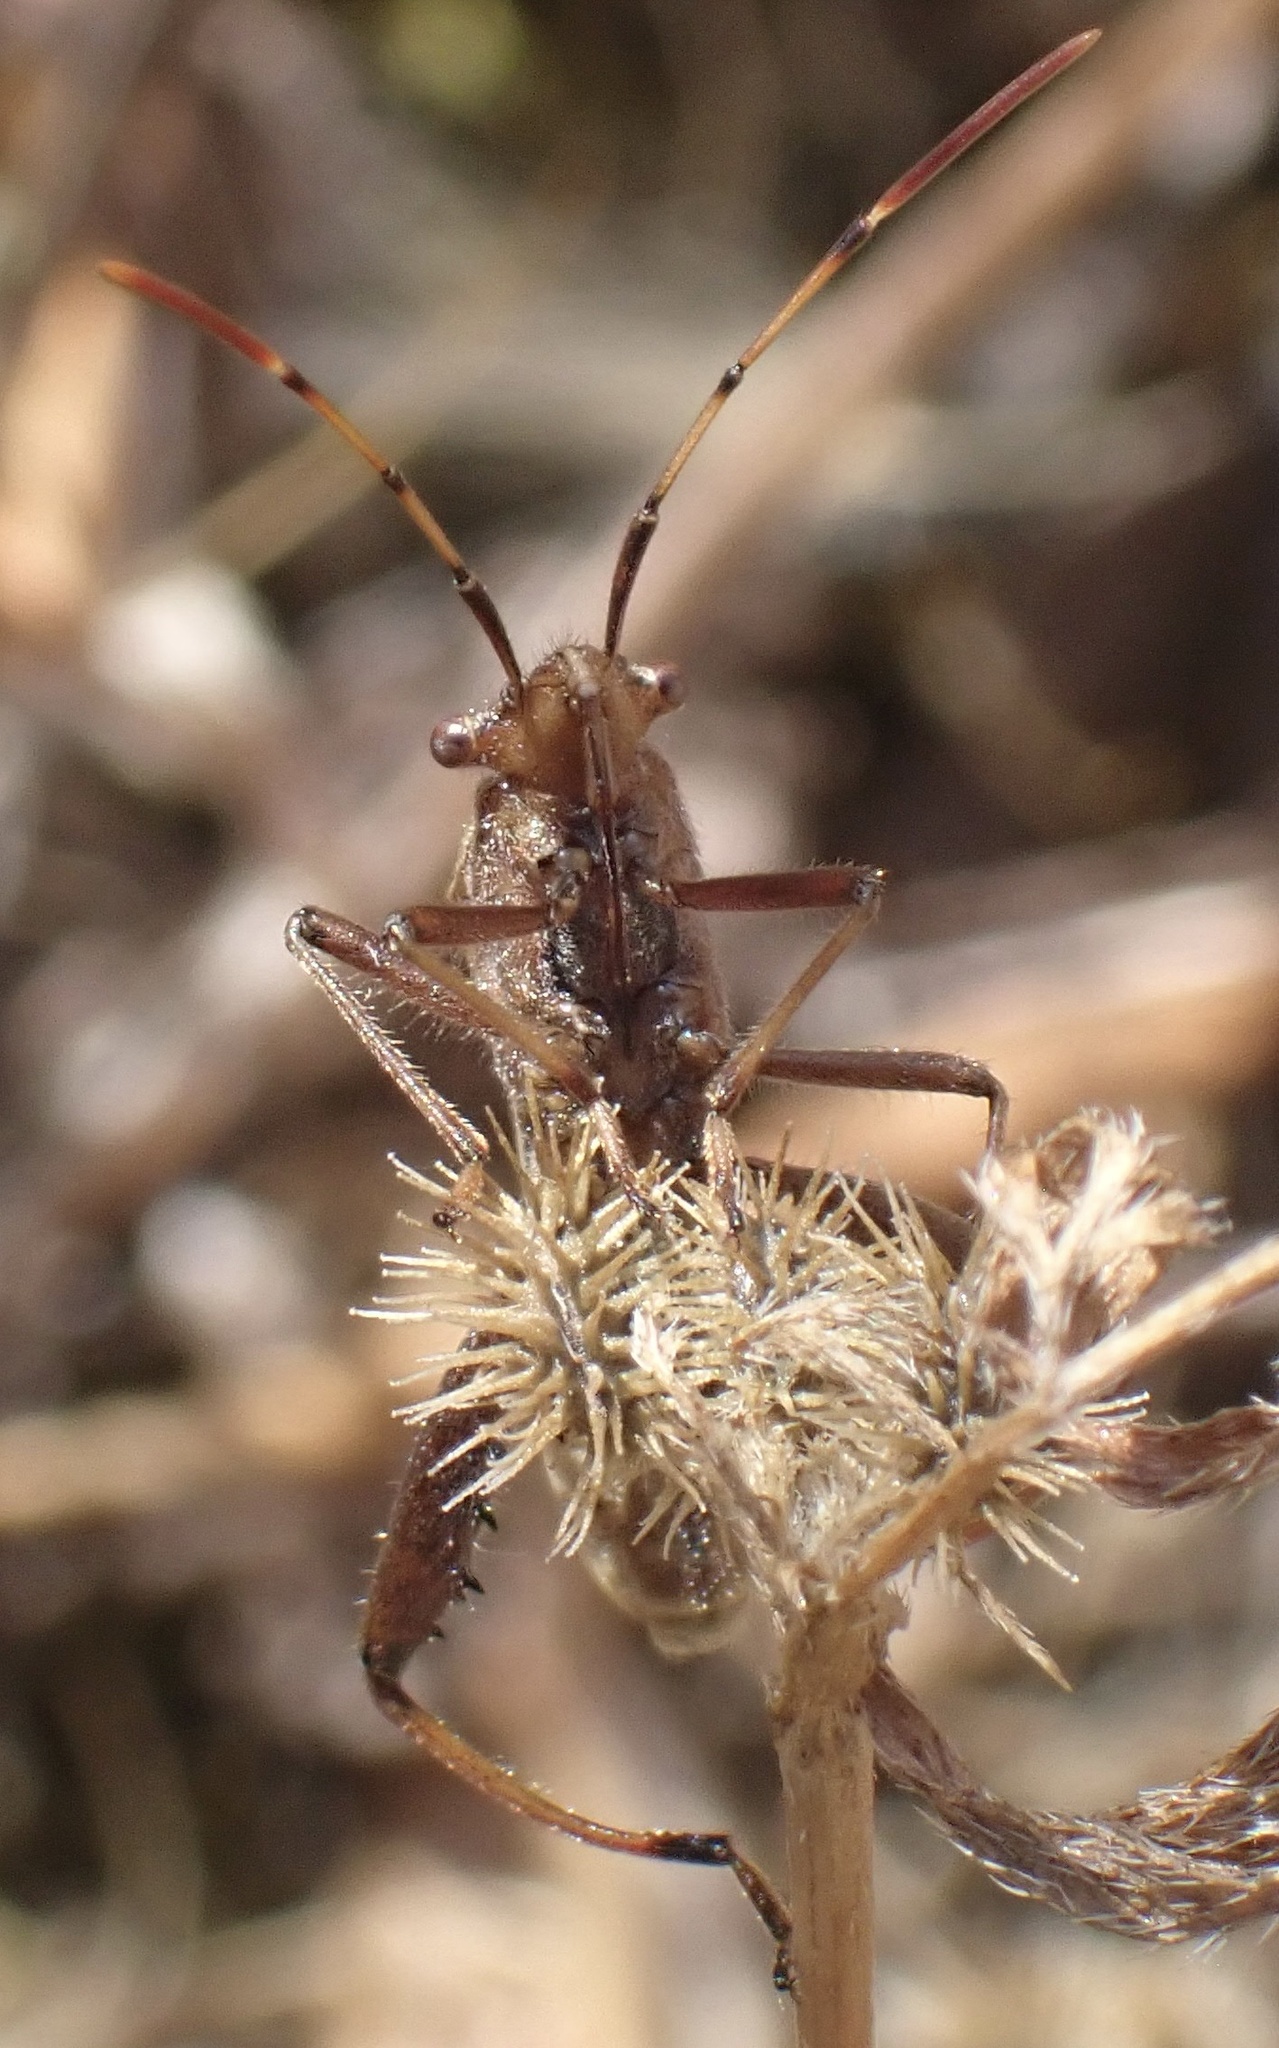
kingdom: Animalia
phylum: Arthropoda
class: Insecta
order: Hemiptera
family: Alydidae
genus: Camptopus
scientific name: Camptopus lateralis
